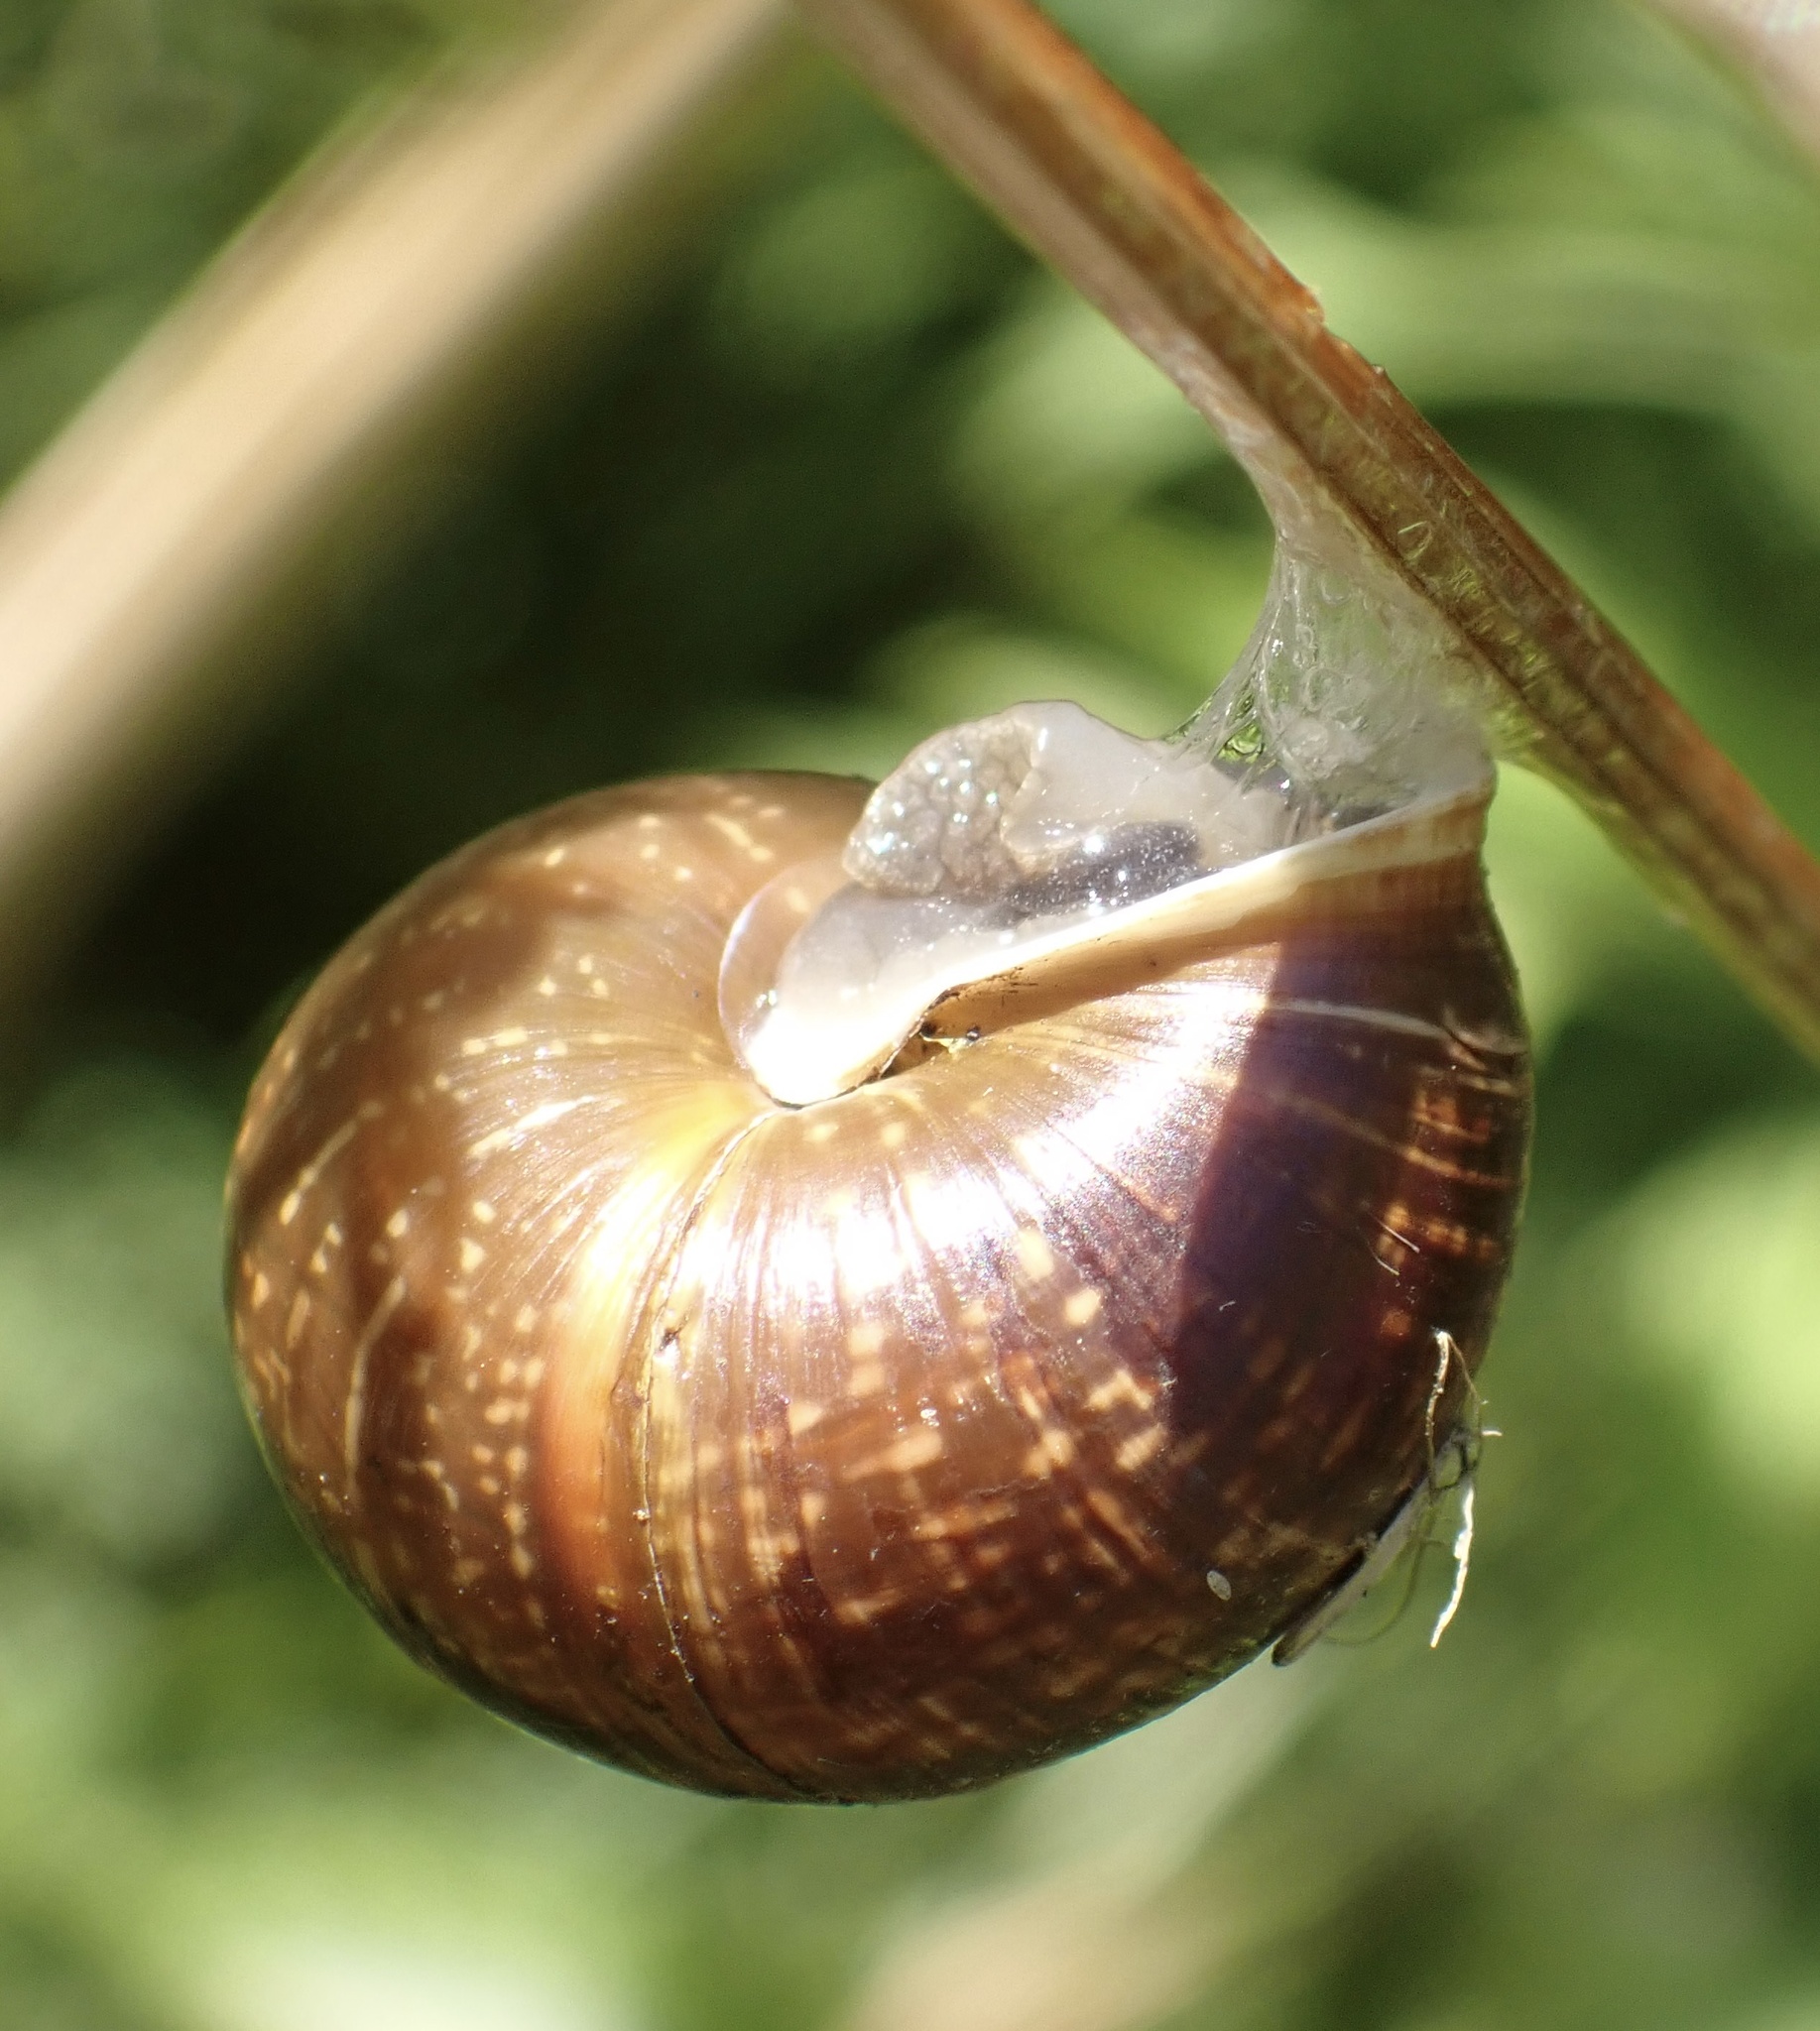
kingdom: Animalia
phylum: Mollusca
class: Gastropoda
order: Stylommatophora
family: Helicidae
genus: Arianta
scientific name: Arianta arbustorum
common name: Copse snail
